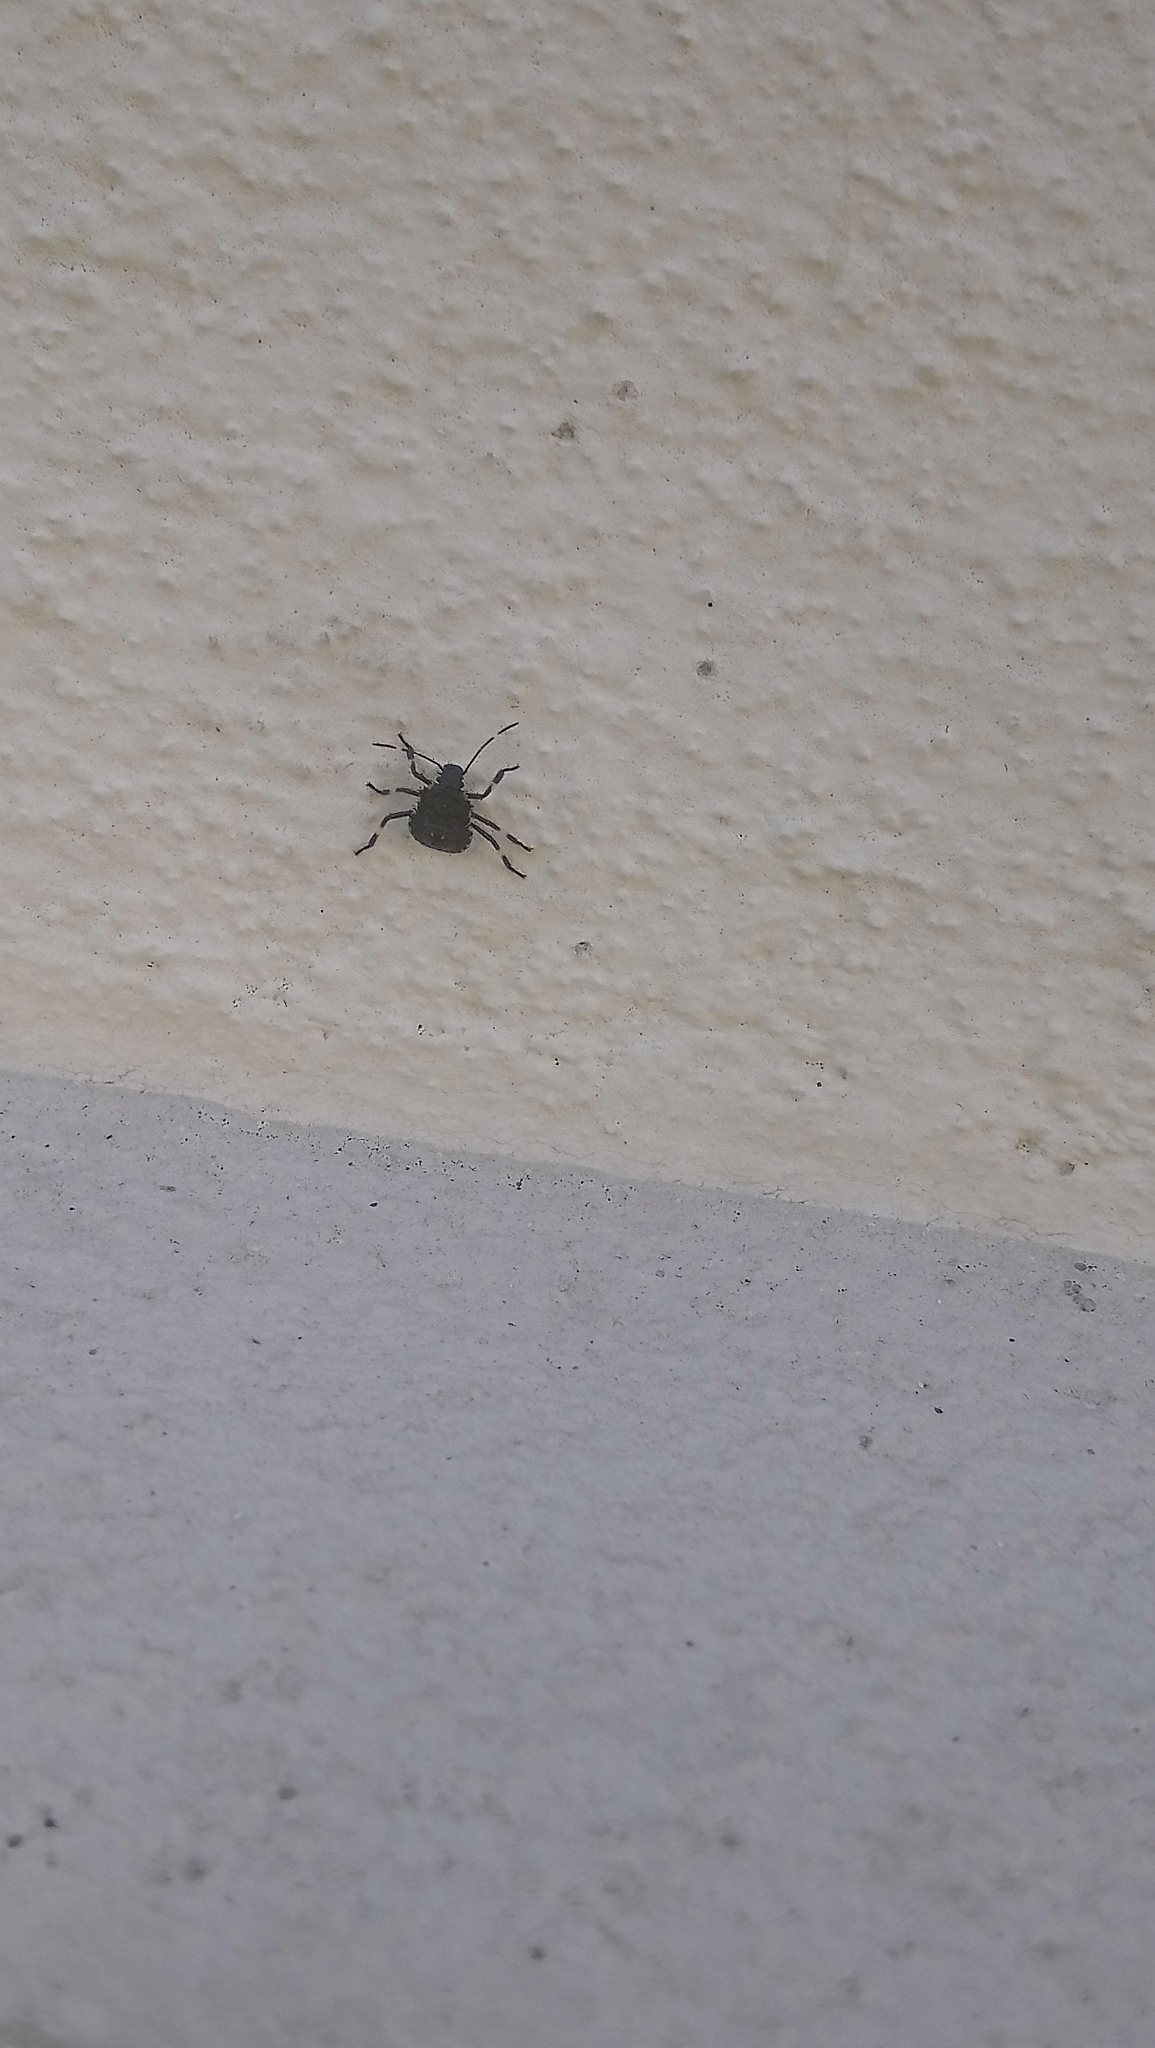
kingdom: Animalia
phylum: Arthropoda
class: Insecta
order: Hemiptera
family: Pentatomidae
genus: Halyomorpha
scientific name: Halyomorpha halys
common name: Brown marmorated stink bug
